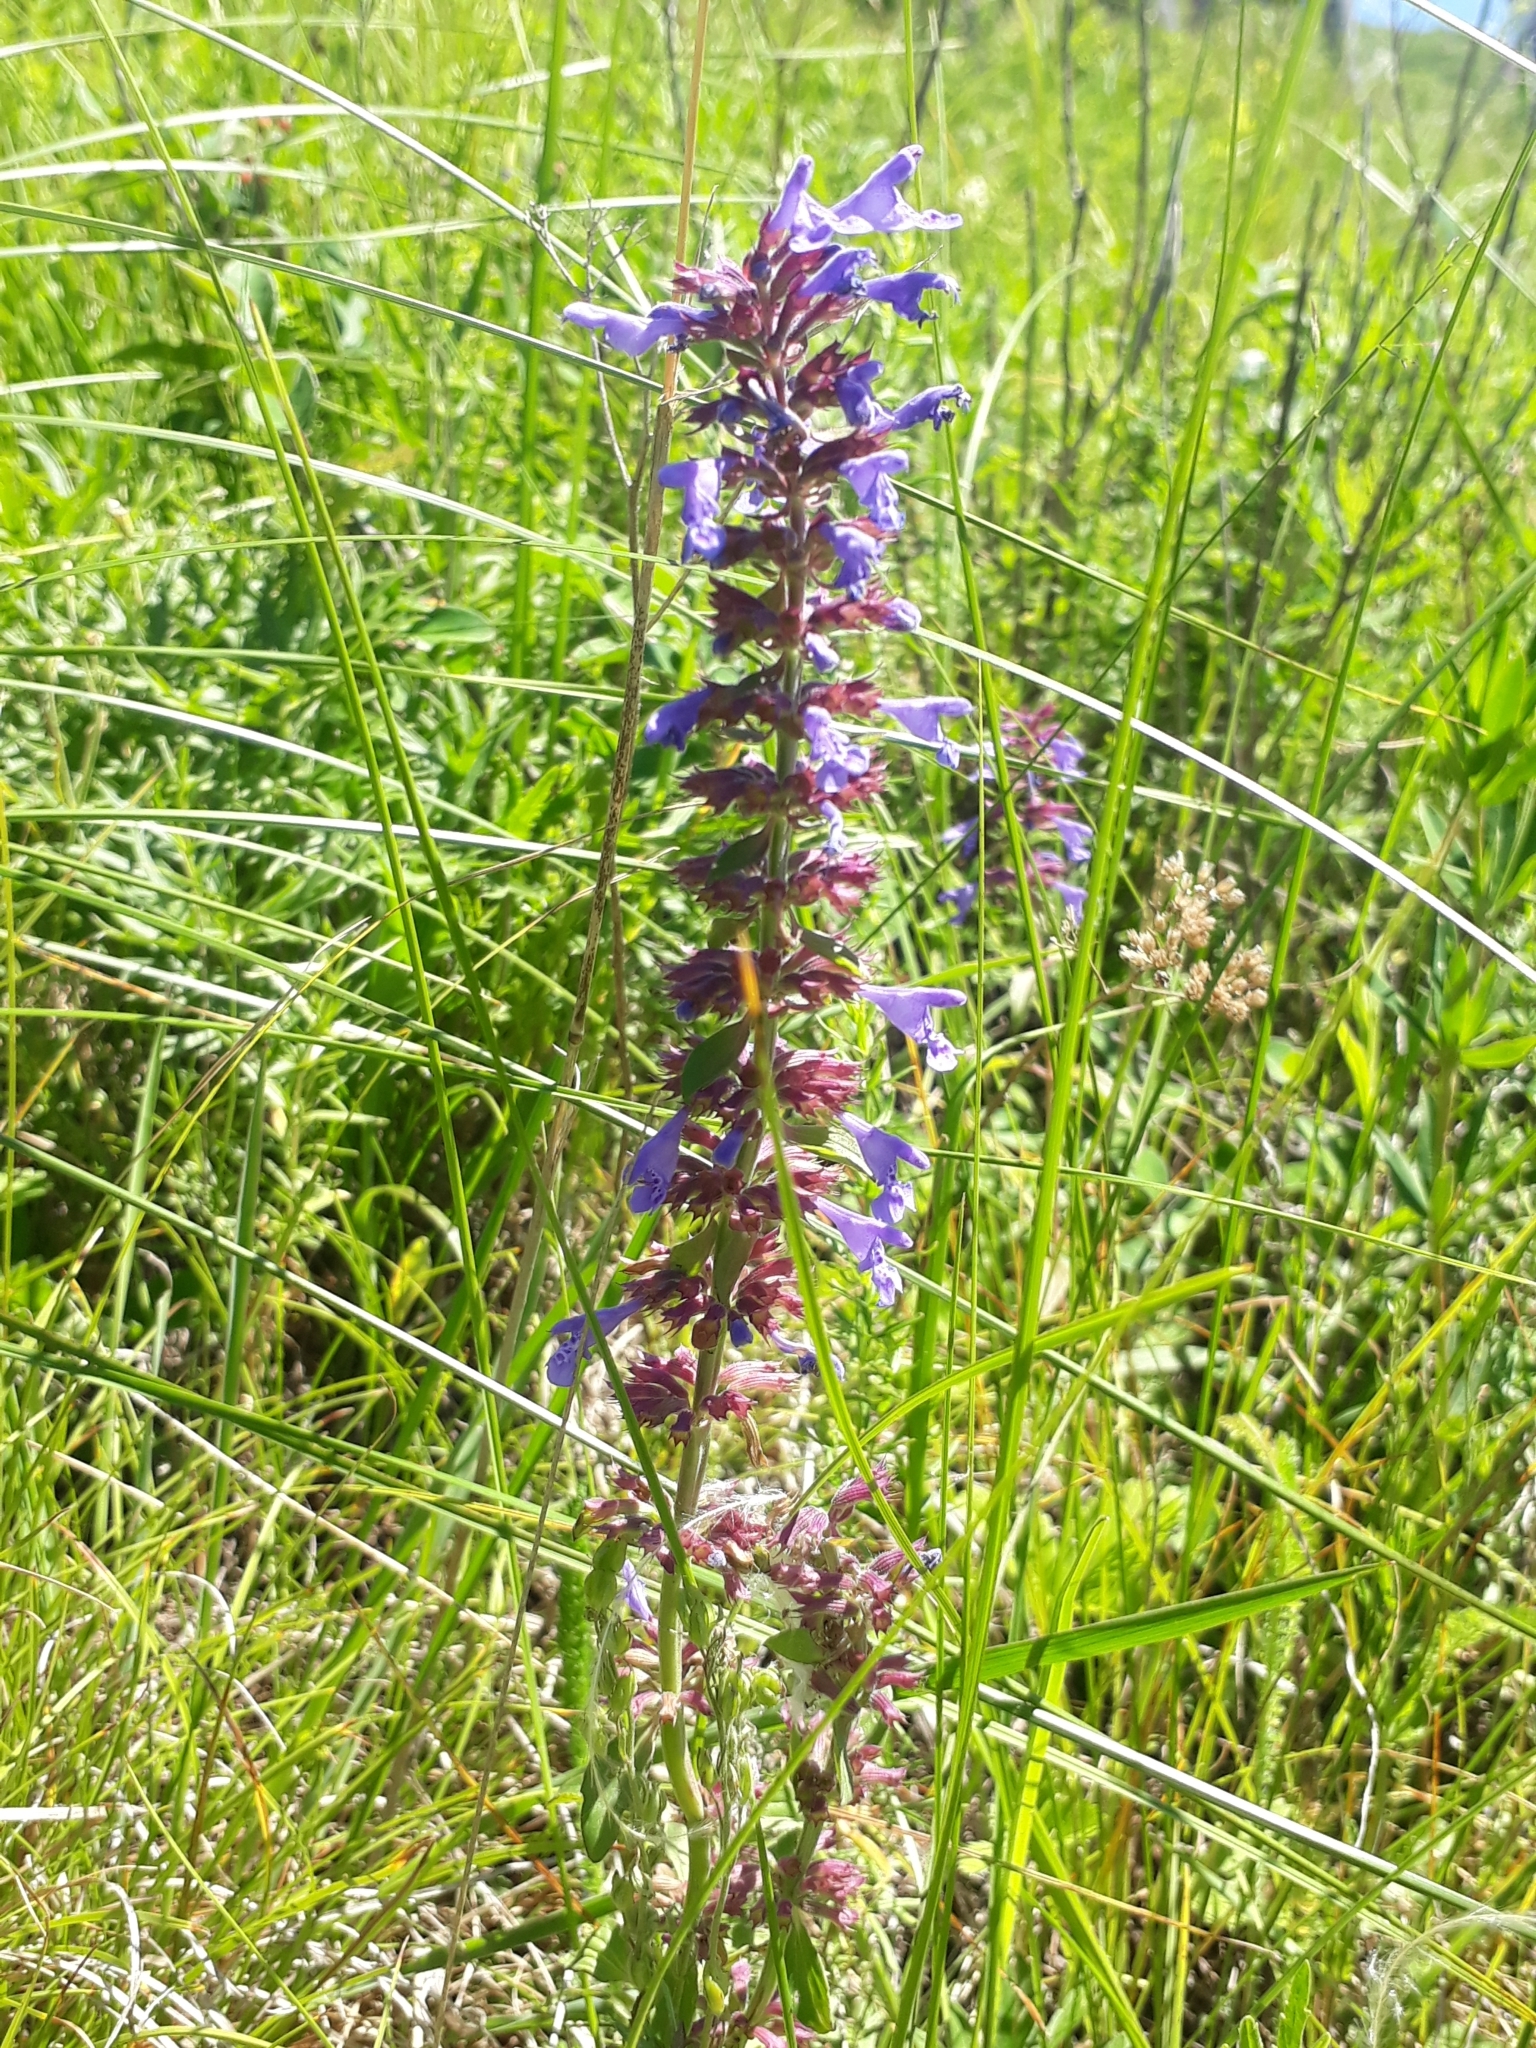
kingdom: Plantae
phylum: Tracheophyta
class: Magnoliopsida
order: Lamiales
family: Lamiaceae
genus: Dracocephalum
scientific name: Dracocephalum nutans
